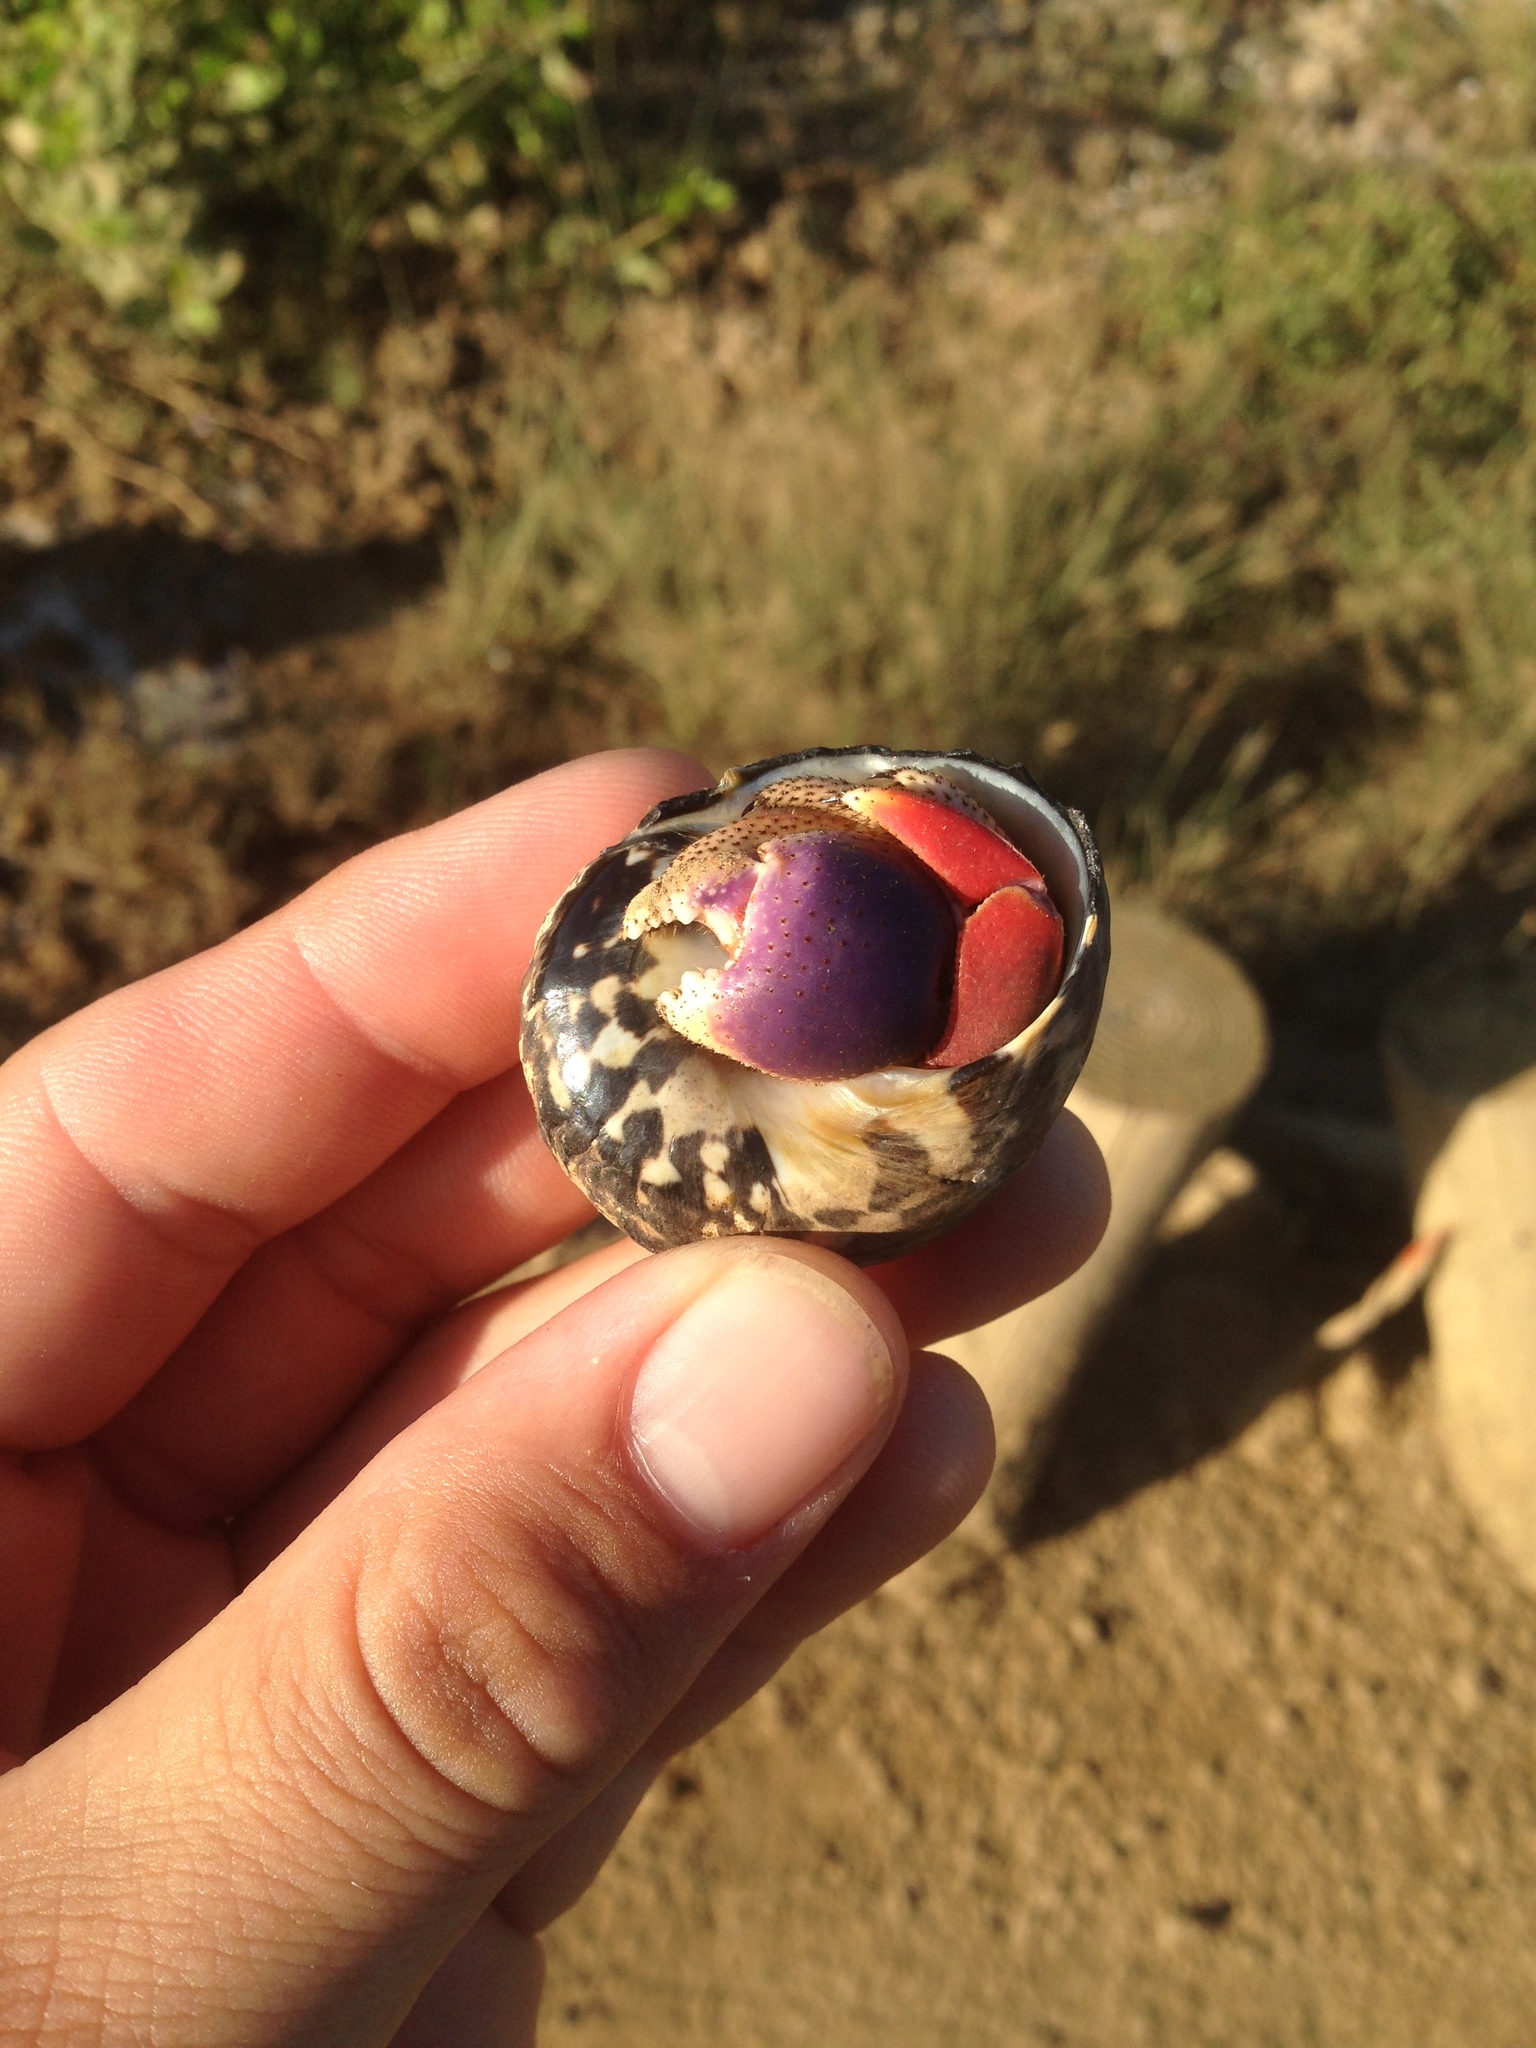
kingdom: Animalia
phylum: Arthropoda
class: Malacostraca
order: Decapoda
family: Coenobitidae
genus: Coenobita
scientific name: Coenobita clypeatus
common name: Caribbean hermit crab
